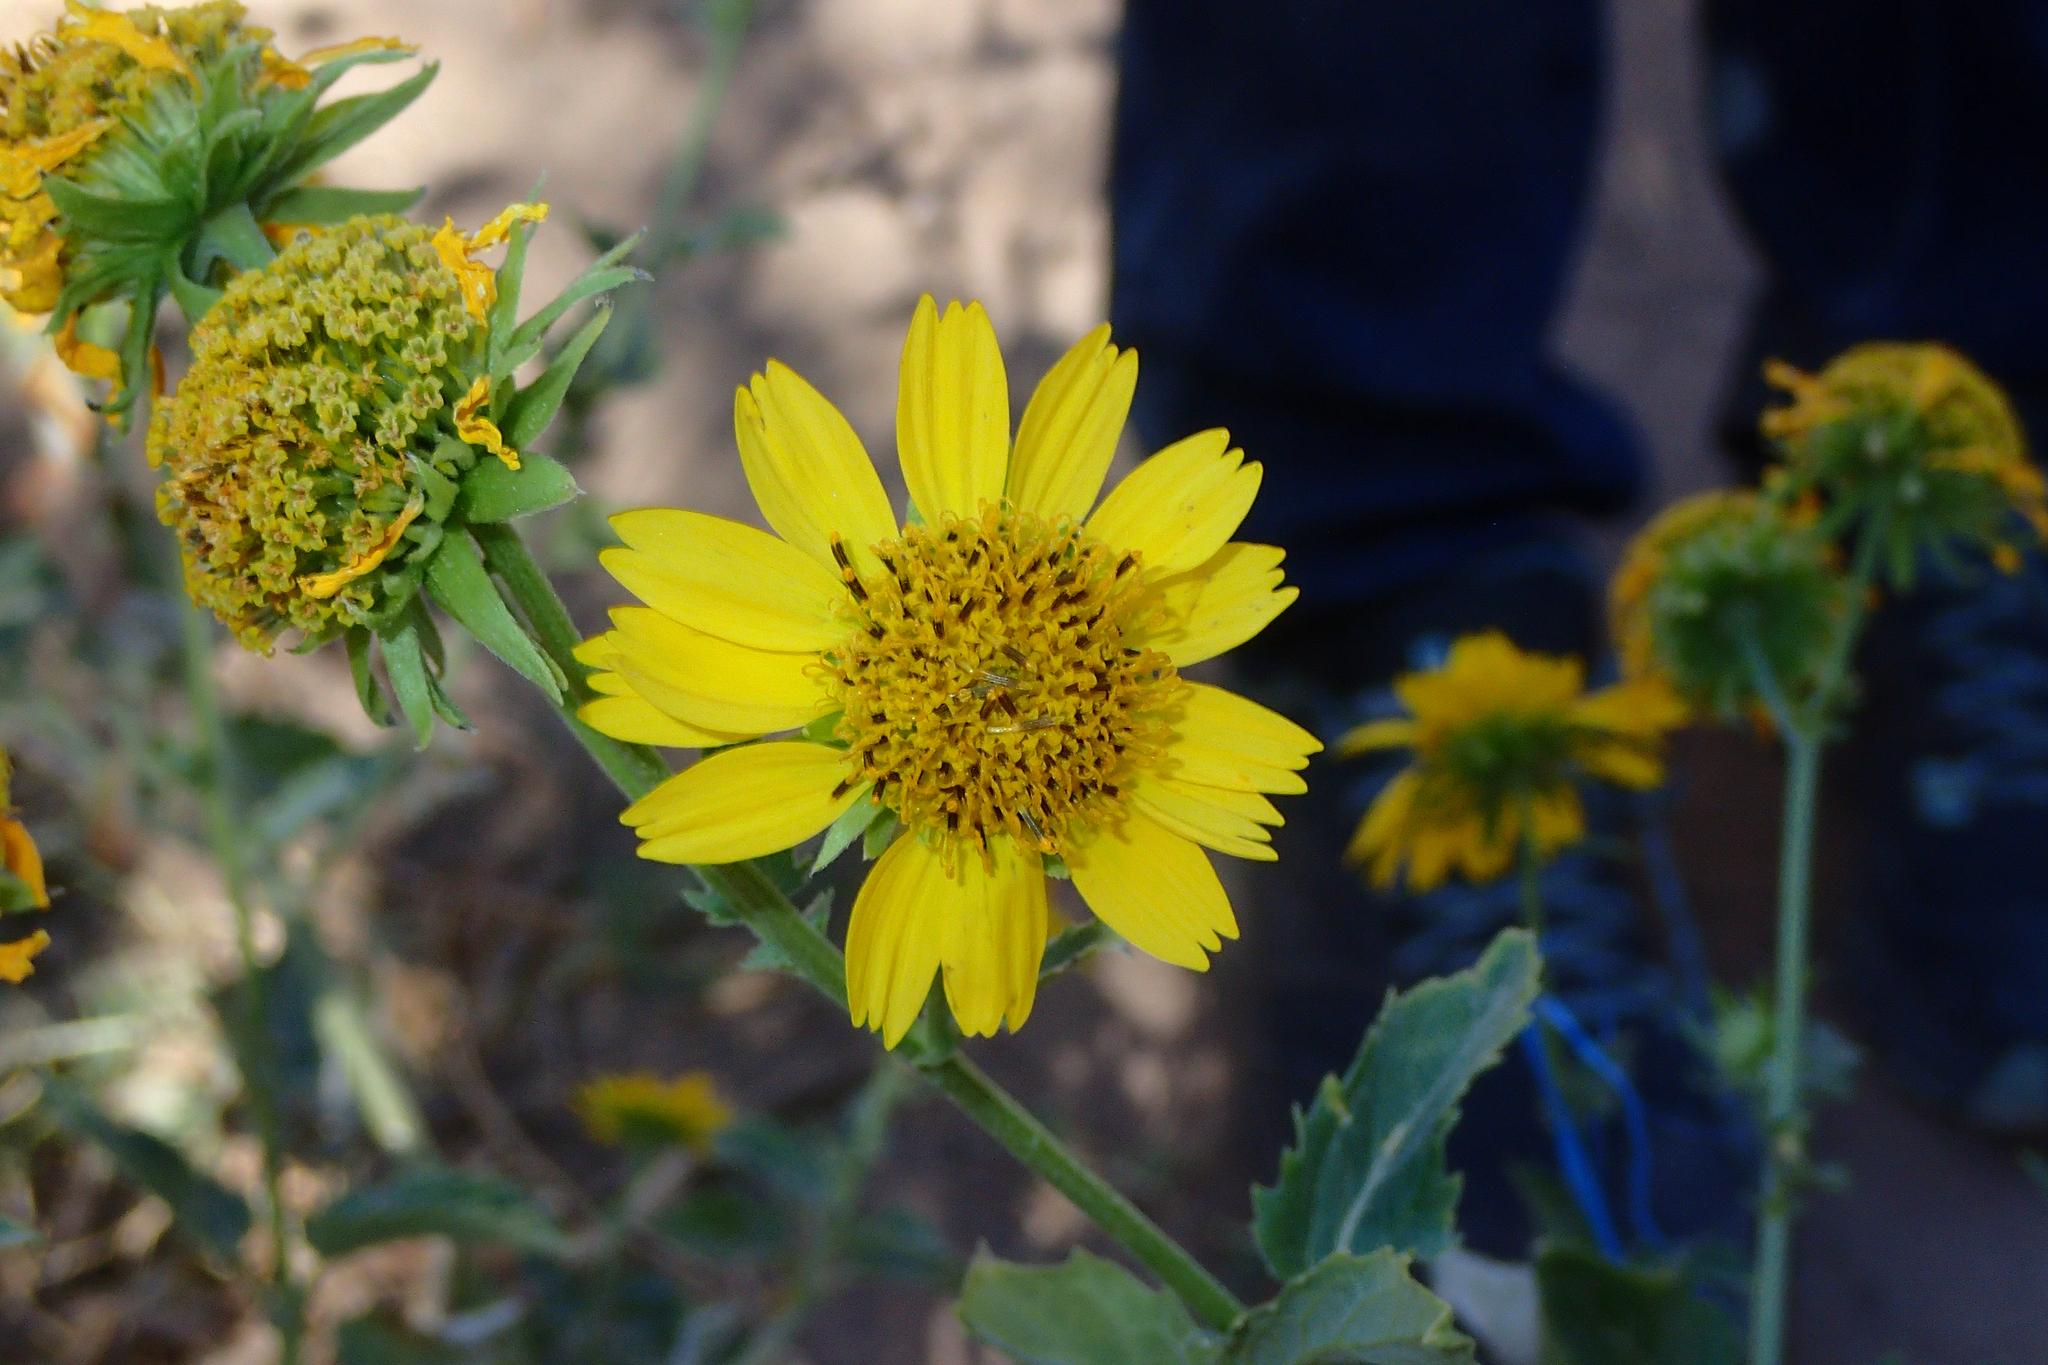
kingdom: Plantae
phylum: Tracheophyta
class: Magnoliopsida
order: Asterales
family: Asteraceae
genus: Verbesina
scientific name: Verbesina encelioides
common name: Golden crownbeard
